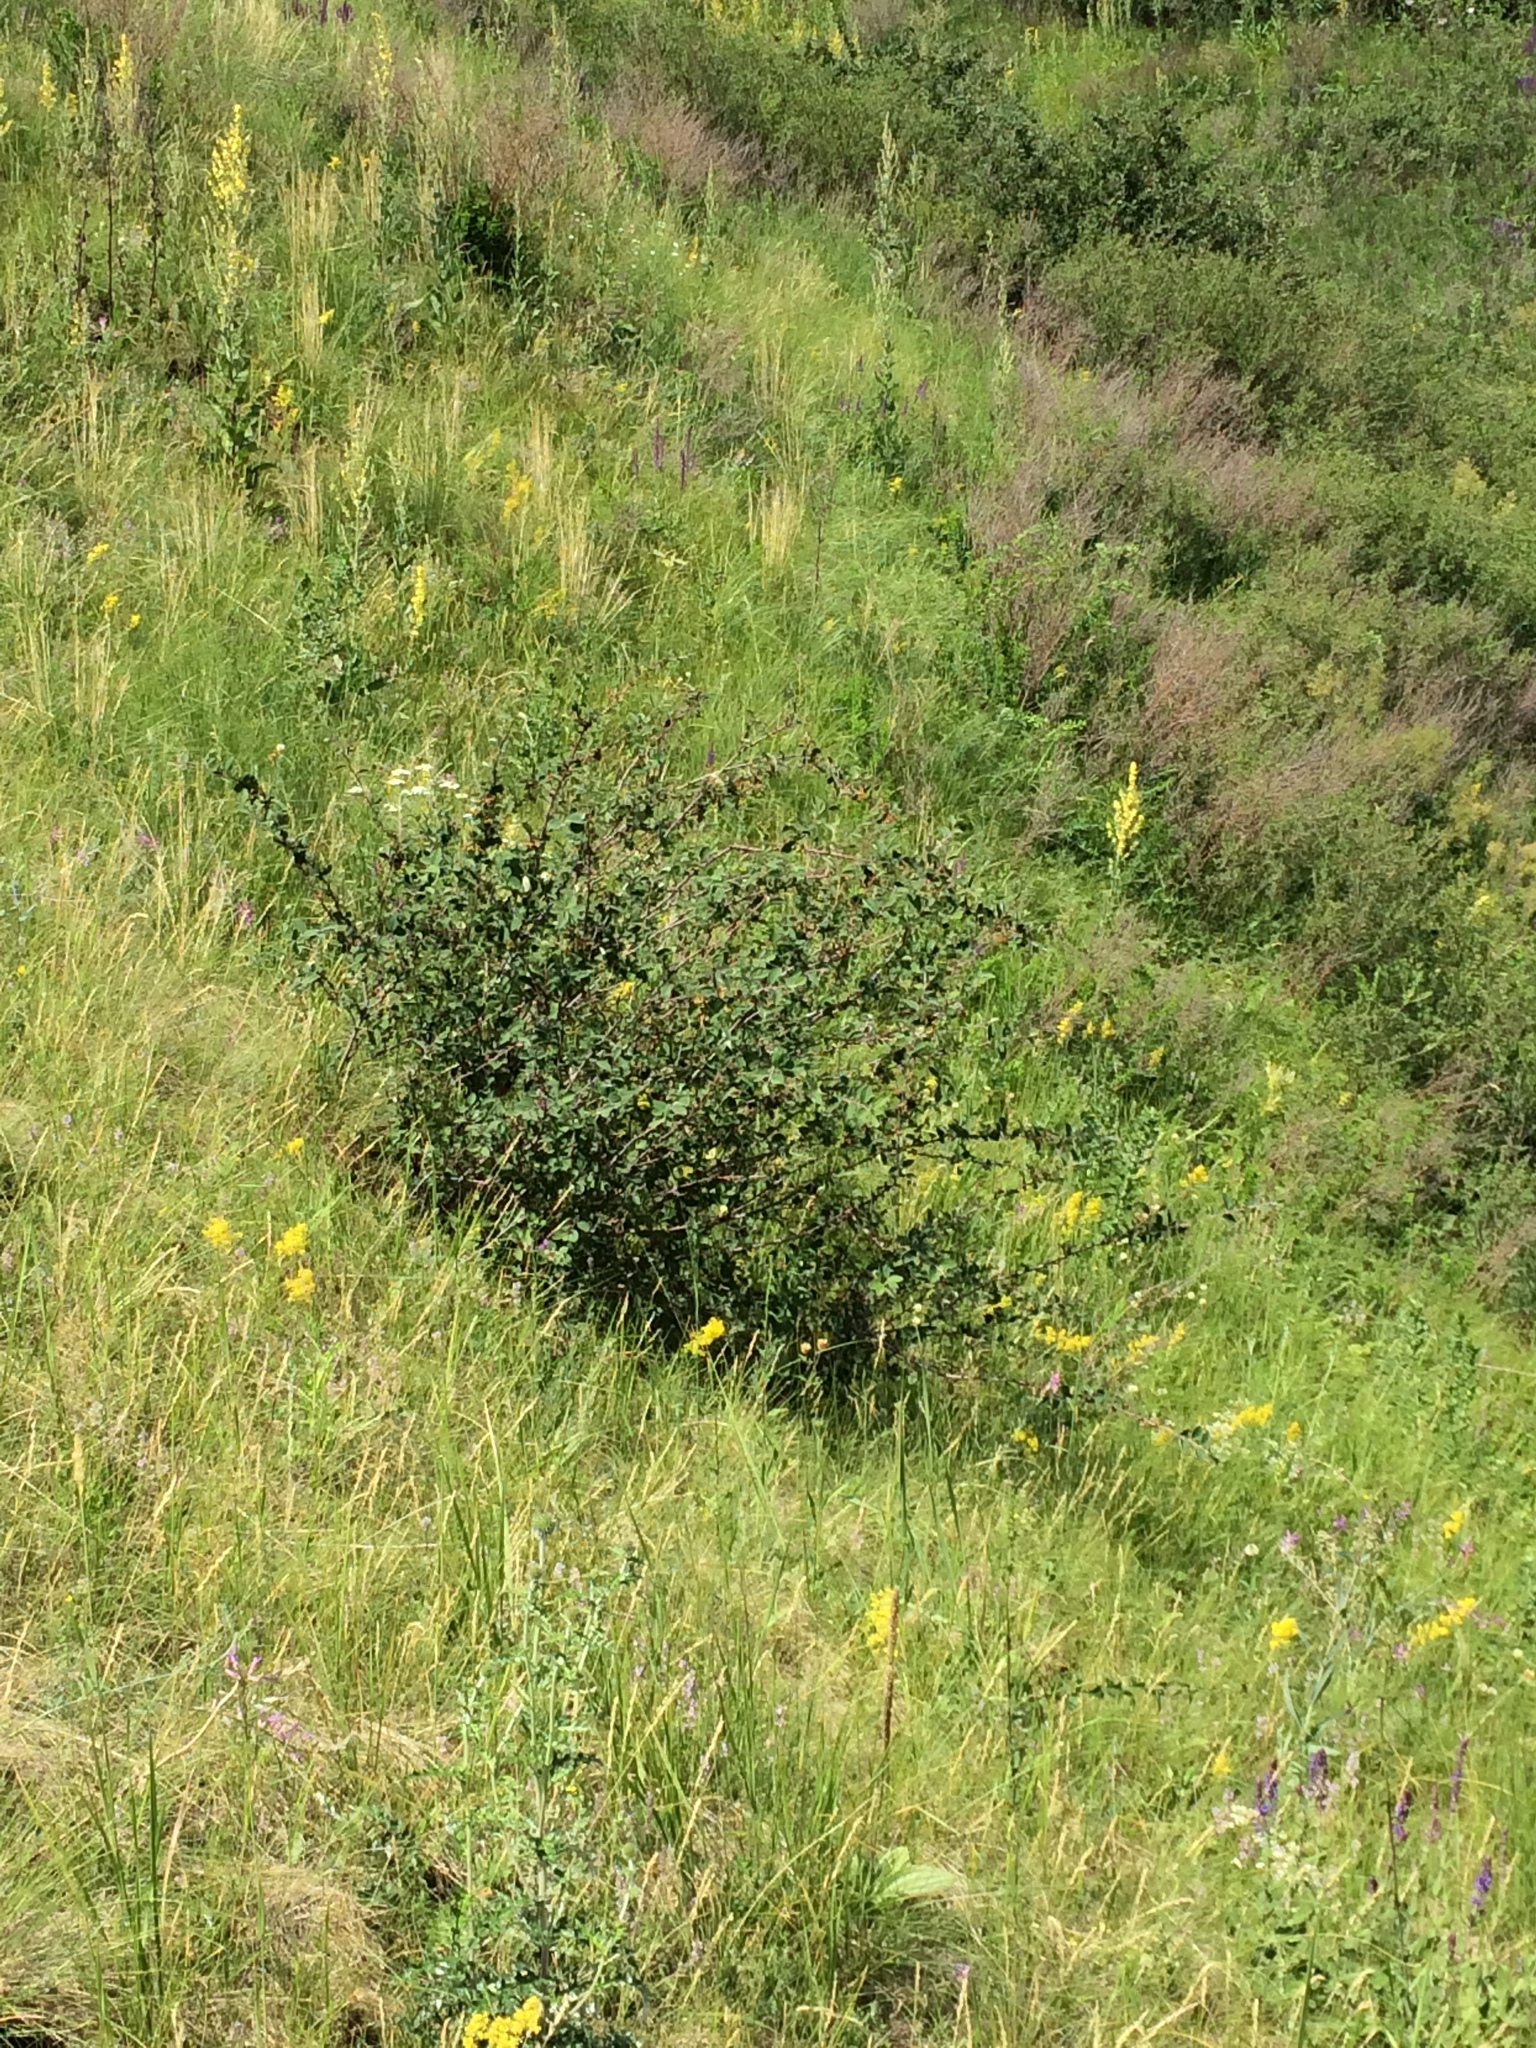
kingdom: Plantae
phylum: Tracheophyta
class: Magnoliopsida
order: Rosales
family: Rosaceae
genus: Cotoneaster
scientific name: Cotoneaster melanocarpus
